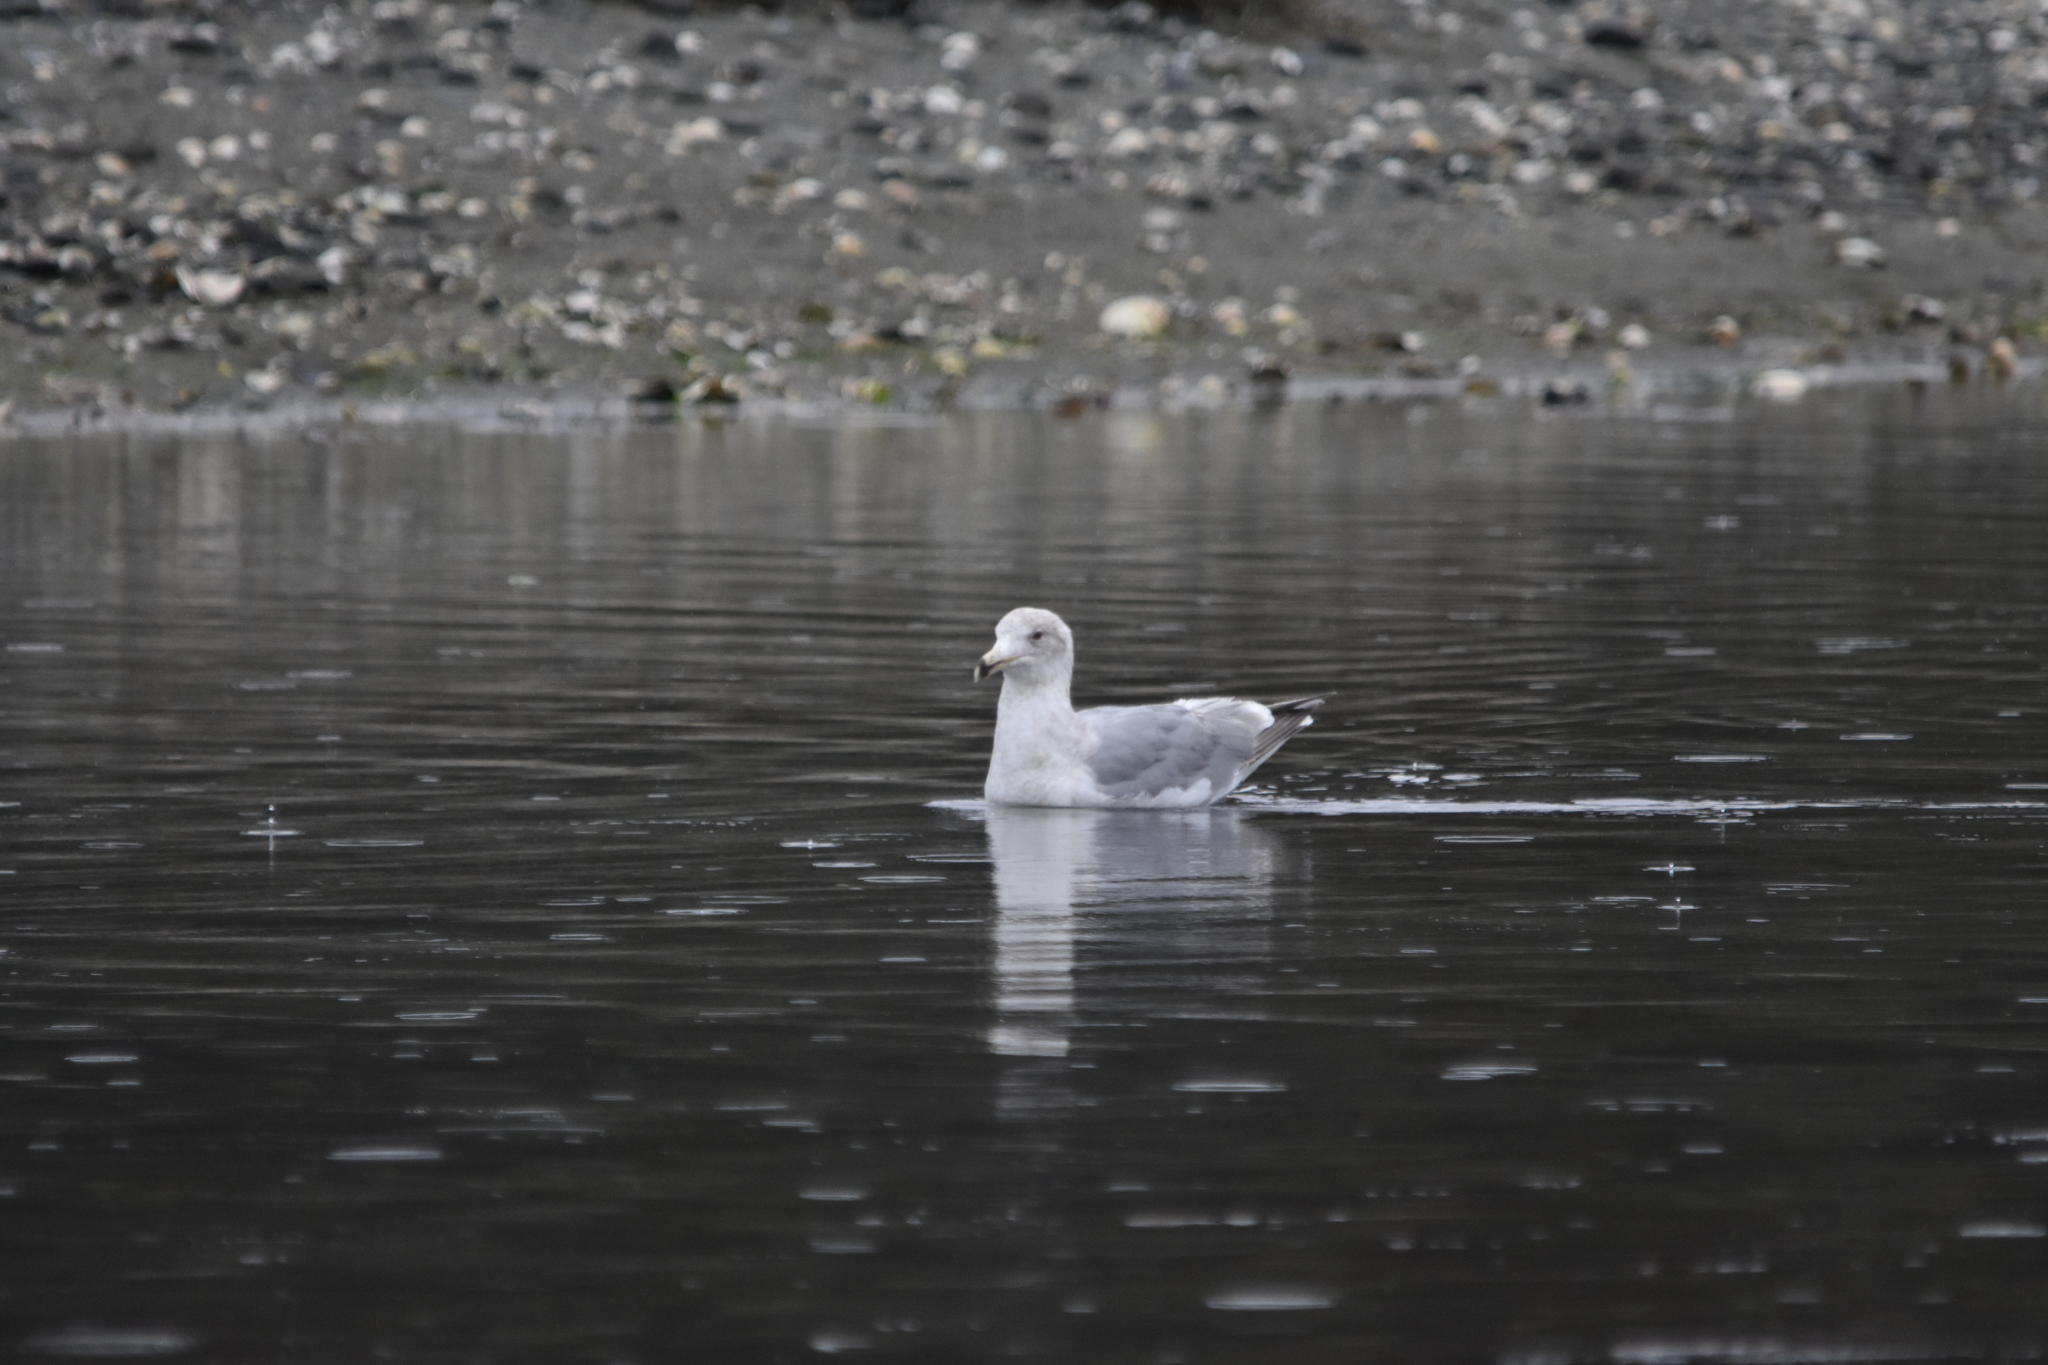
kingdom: Animalia
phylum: Chordata
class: Aves
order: Charadriiformes
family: Laridae
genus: Larus
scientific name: Larus
